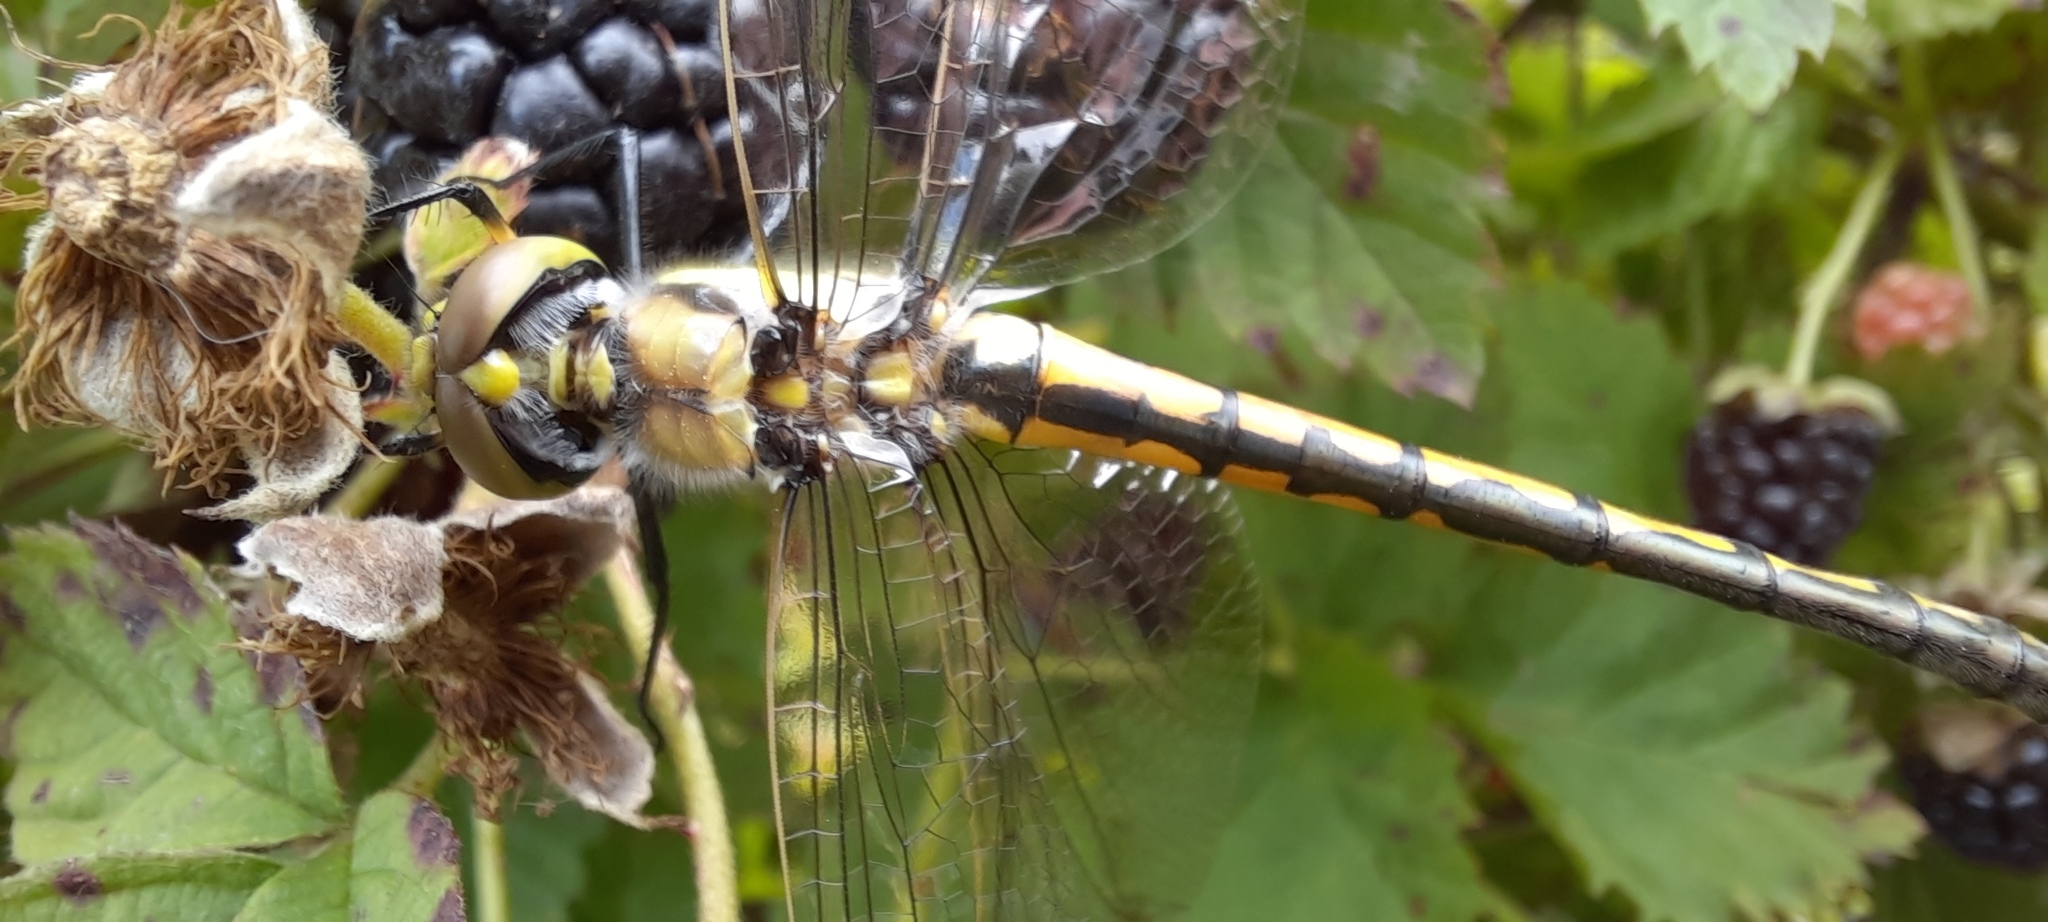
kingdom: Animalia
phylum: Arthropoda
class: Insecta
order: Odonata
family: Corduliidae
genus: Hemicordulia
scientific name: Hemicordulia tau
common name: Tau emerald
